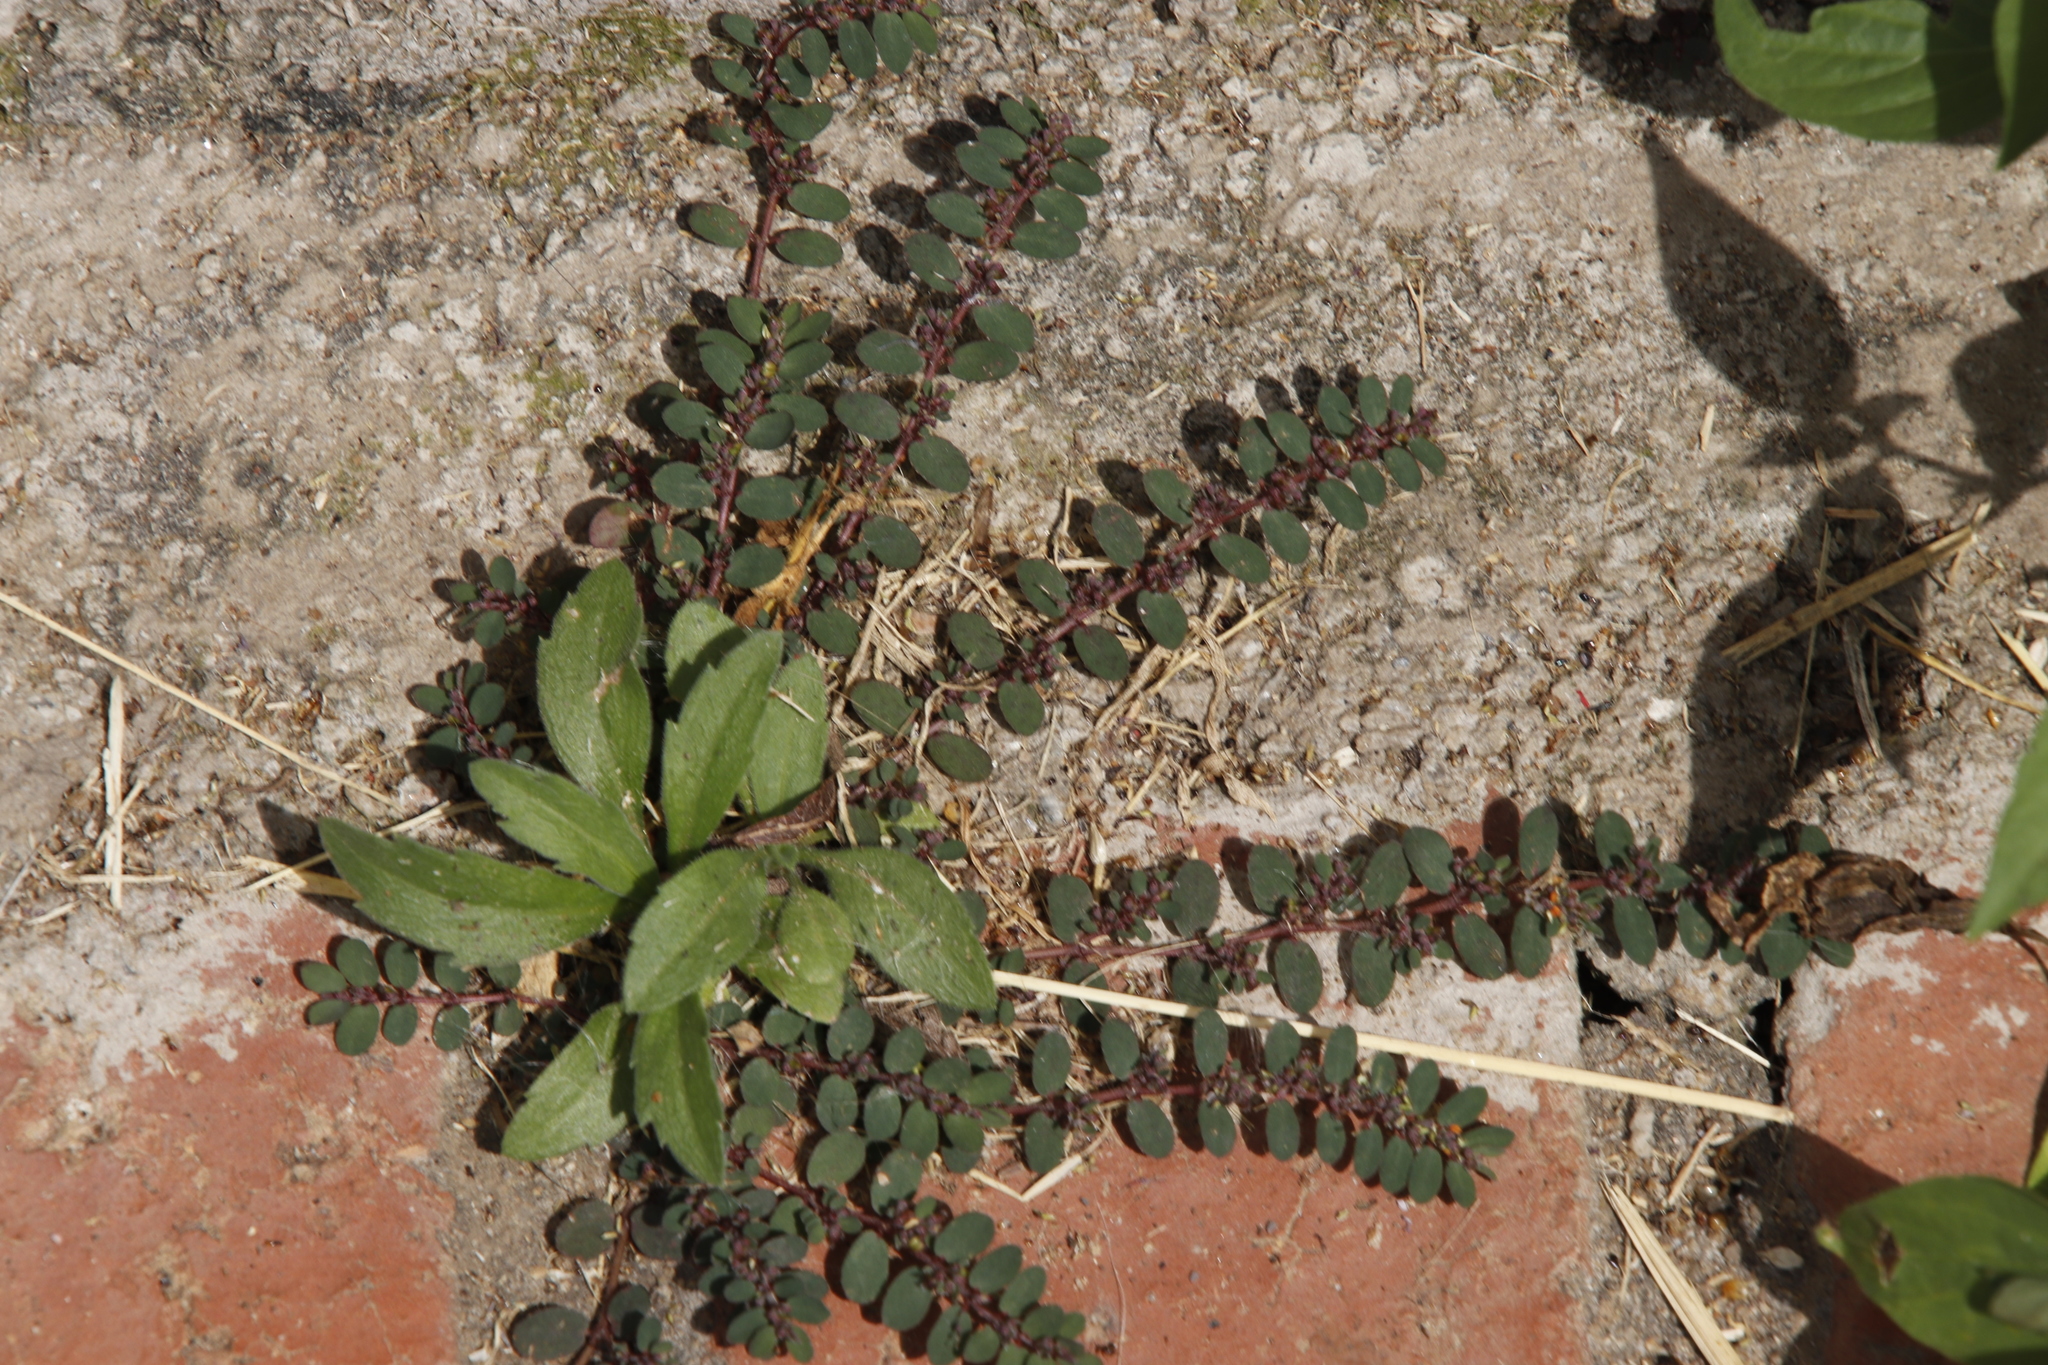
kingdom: Plantae
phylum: Tracheophyta
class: Magnoliopsida
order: Malpighiales
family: Euphorbiaceae
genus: Euphorbia
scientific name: Euphorbia prostrata
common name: Prostrate sandmat
